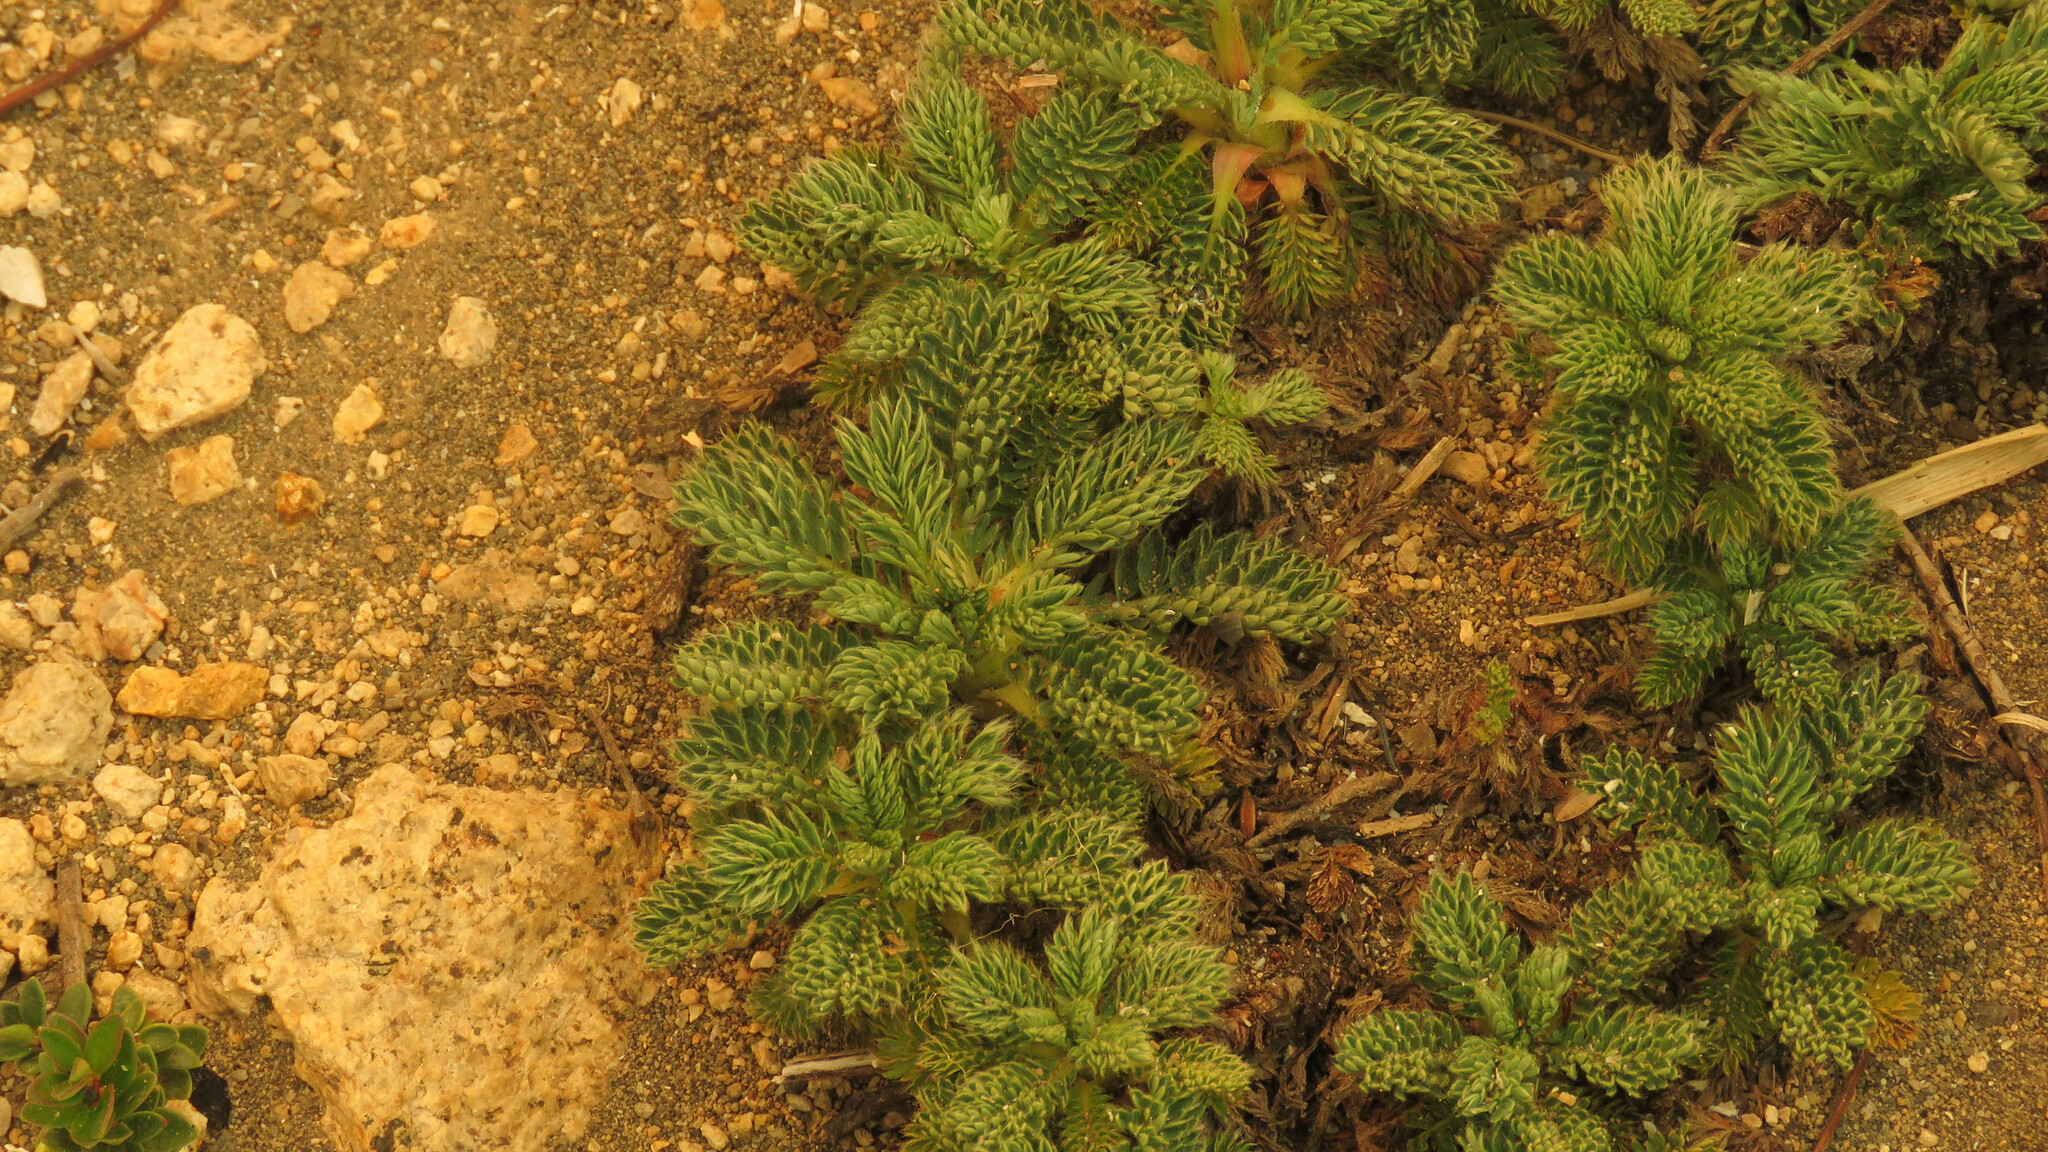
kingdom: Plantae
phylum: Tracheophyta
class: Magnoliopsida
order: Rosales
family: Rosaceae
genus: Acaena
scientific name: Acaena leptacantha
